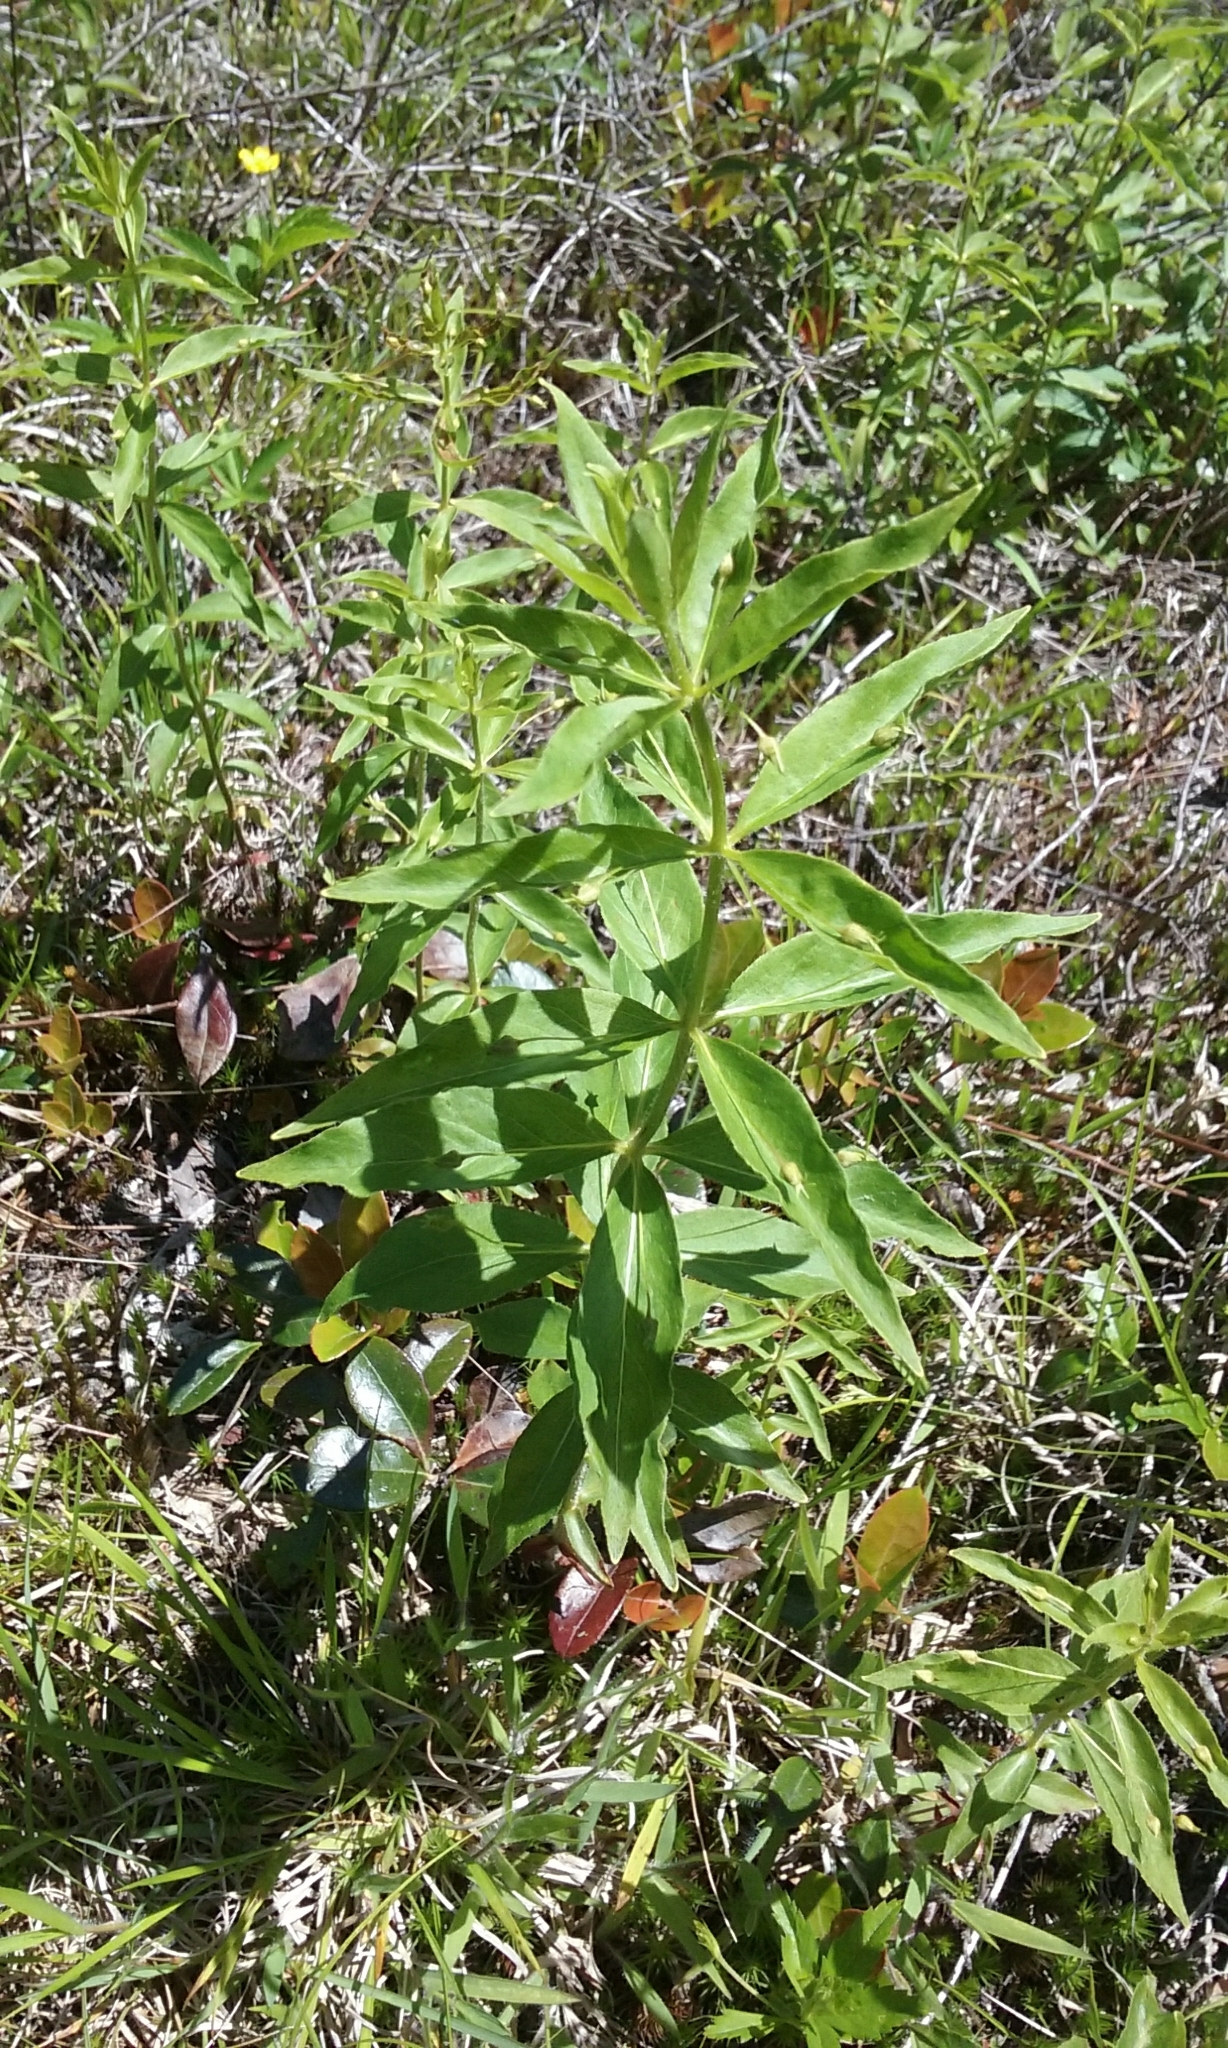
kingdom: Plantae
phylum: Tracheophyta
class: Magnoliopsida
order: Ericales
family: Primulaceae
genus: Lysimachia
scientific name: Lysimachia quadrifolia
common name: Whorled loosestrife
